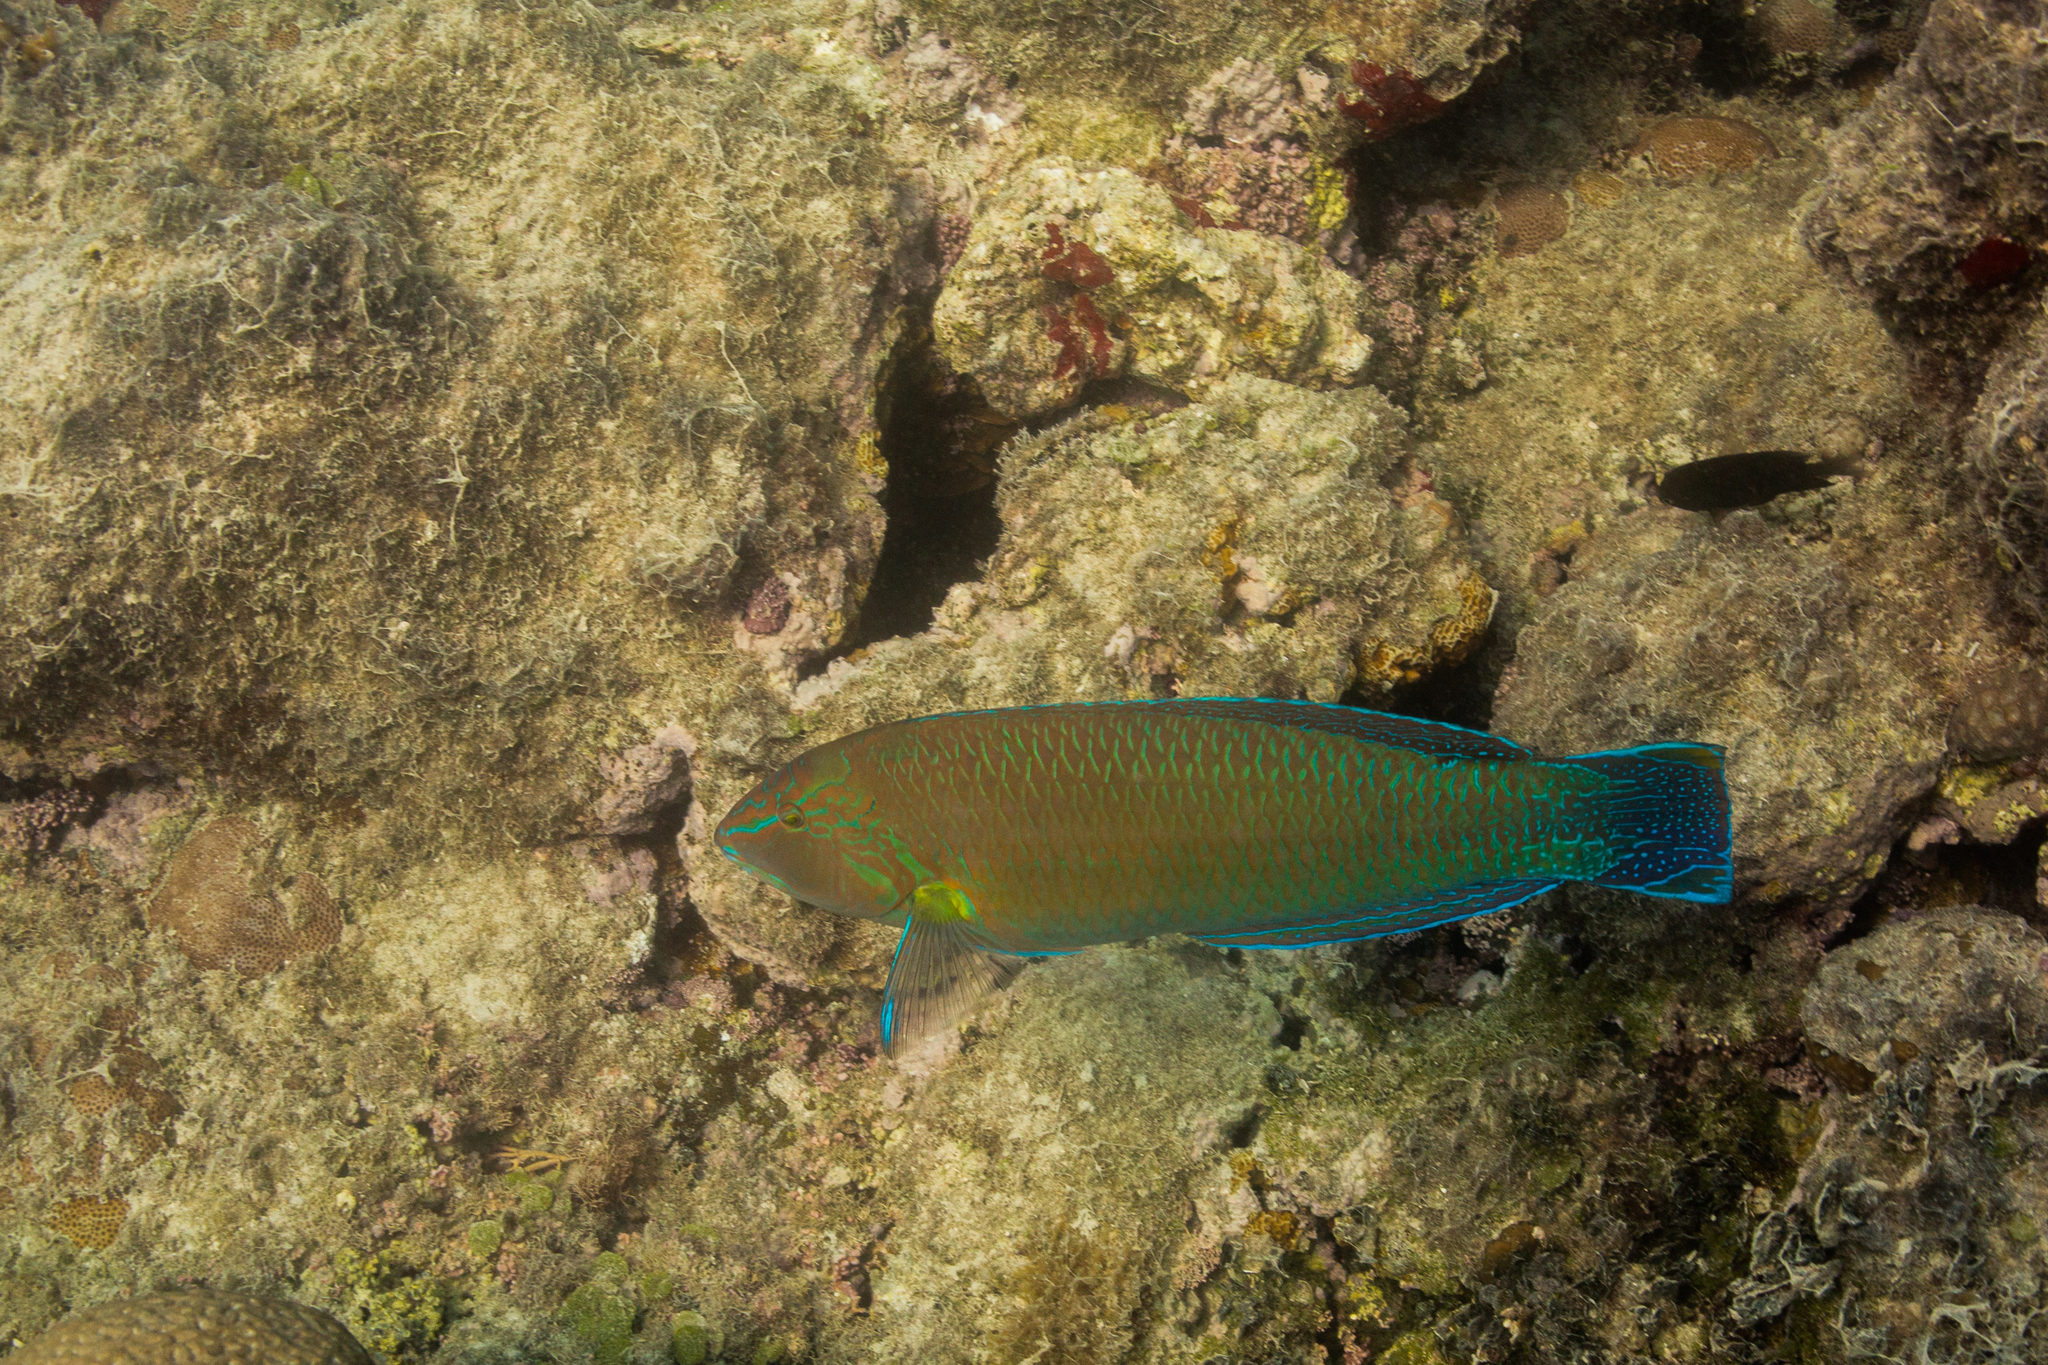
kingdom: Animalia
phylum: Chordata
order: Perciformes
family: Labridae
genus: Halichoeres
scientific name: Halichoeres brasiliensis
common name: Brazilian wrasse
